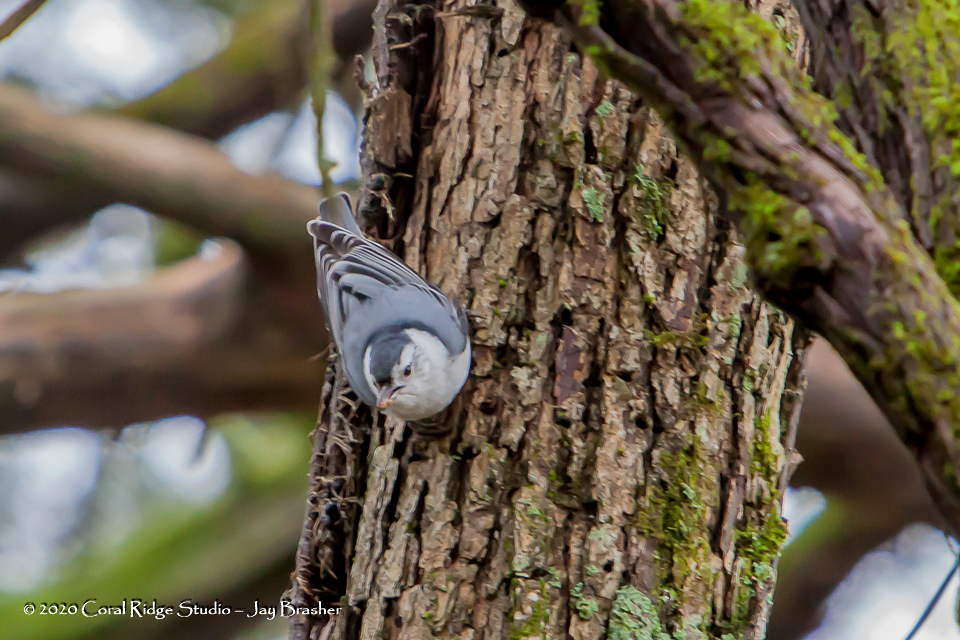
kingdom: Animalia
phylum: Chordata
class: Aves
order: Passeriformes
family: Sittidae
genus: Sitta
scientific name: Sitta carolinensis
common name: White-breasted nuthatch
